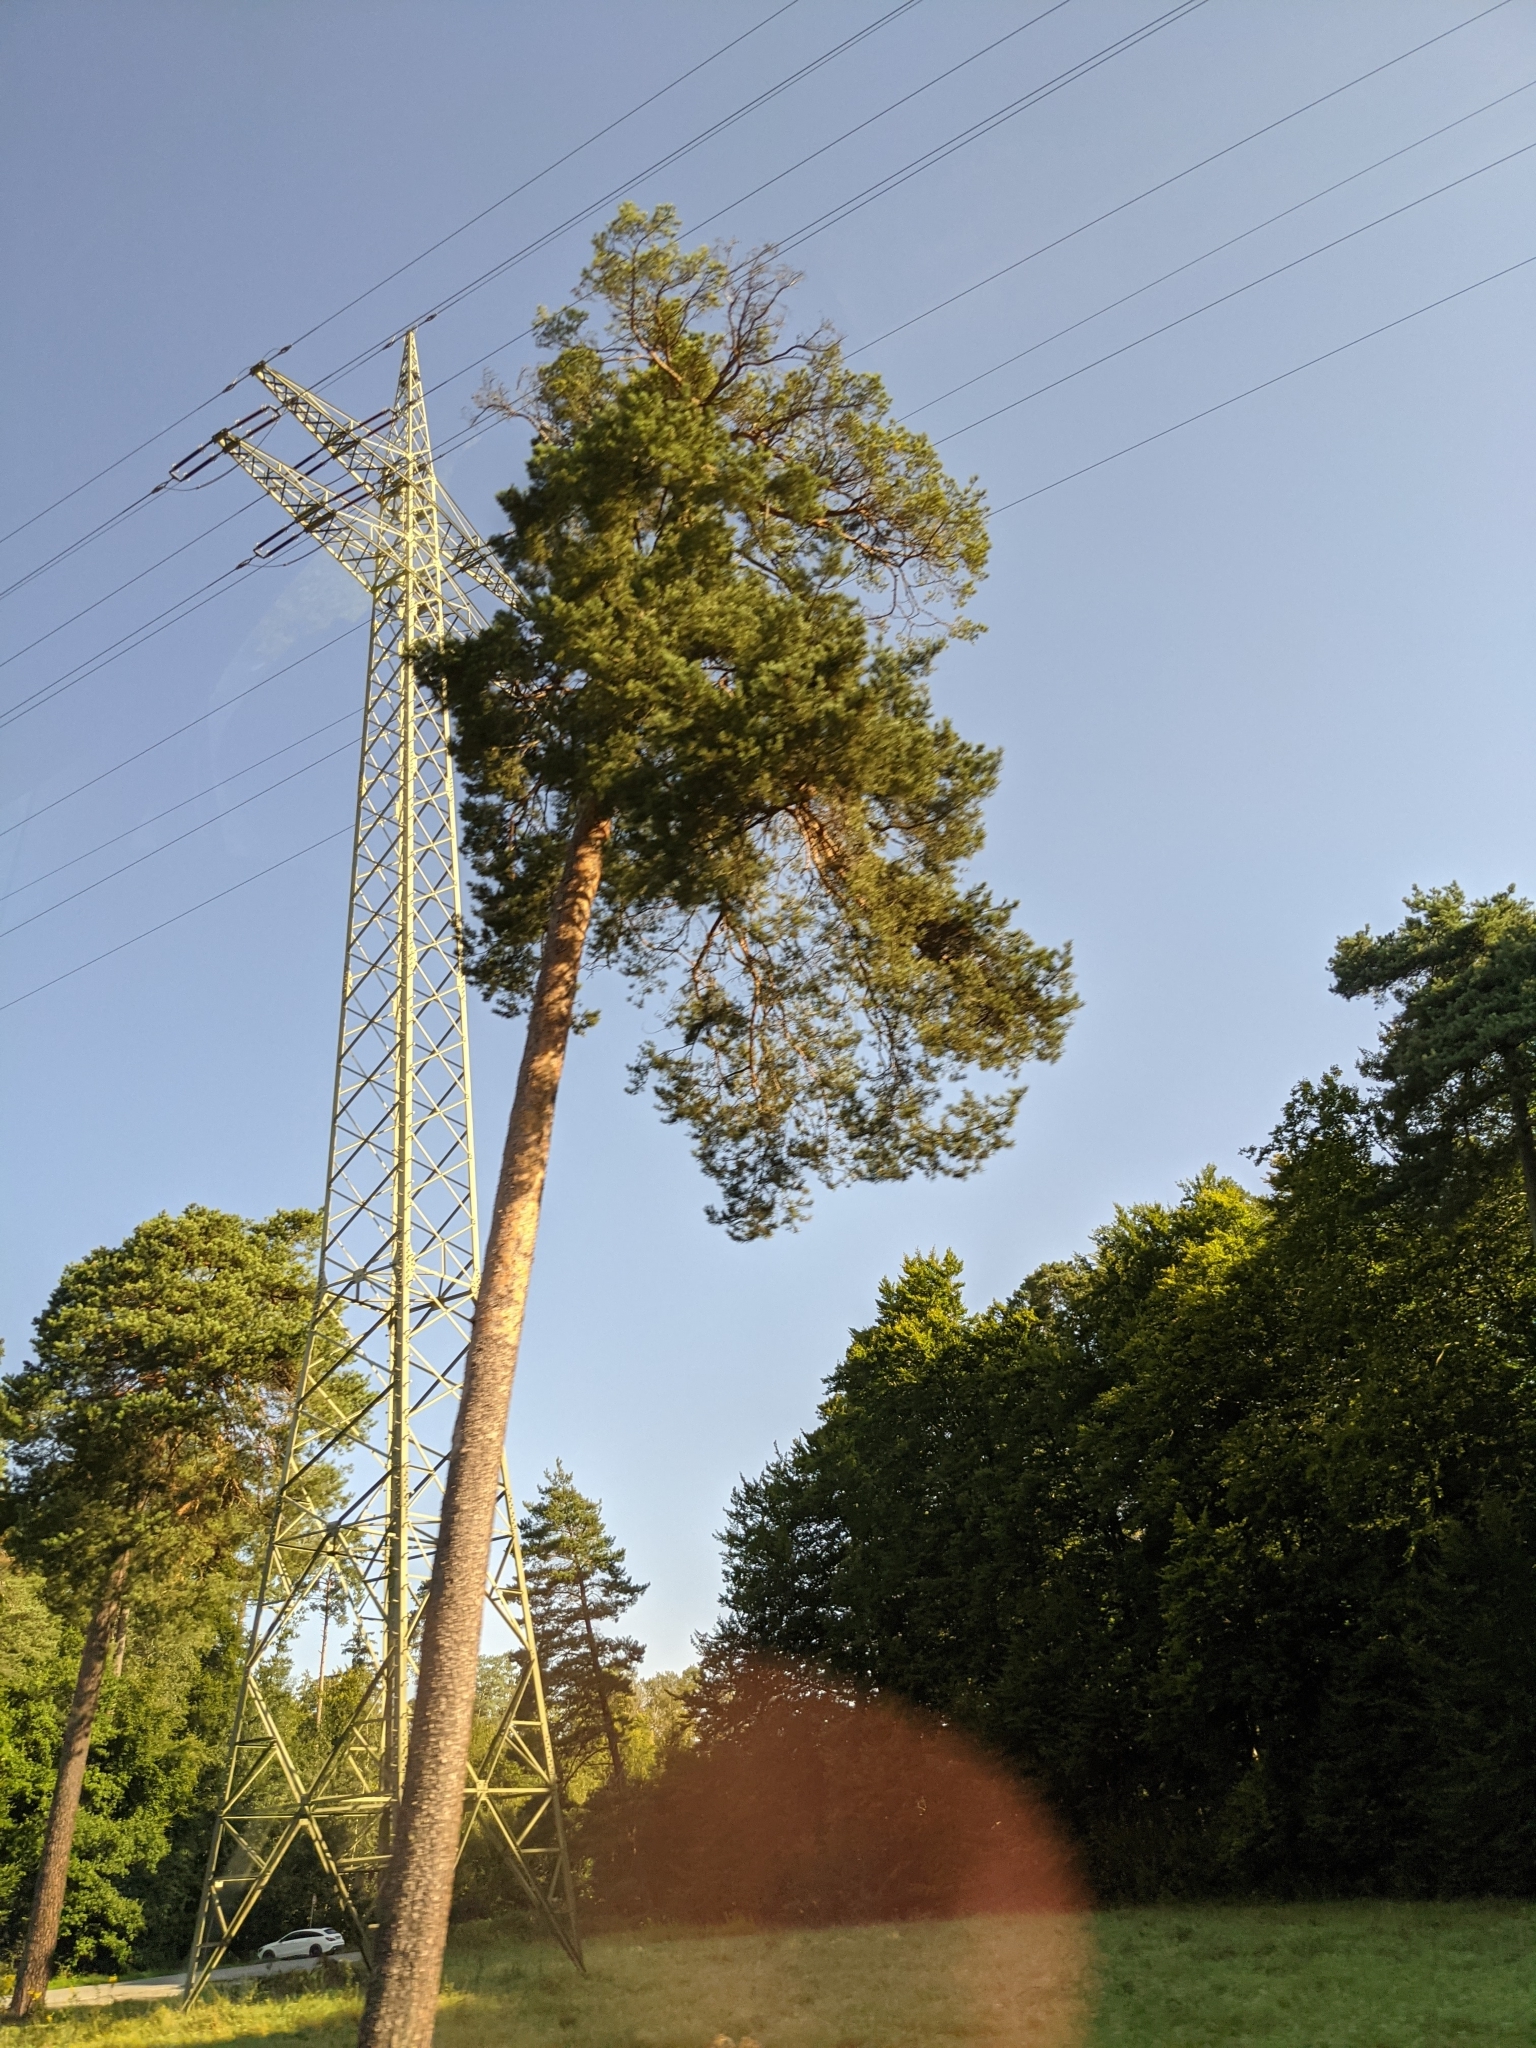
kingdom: Plantae
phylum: Tracheophyta
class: Pinopsida
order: Pinales
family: Pinaceae
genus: Pinus
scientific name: Pinus sylvestris
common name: Scots pine
